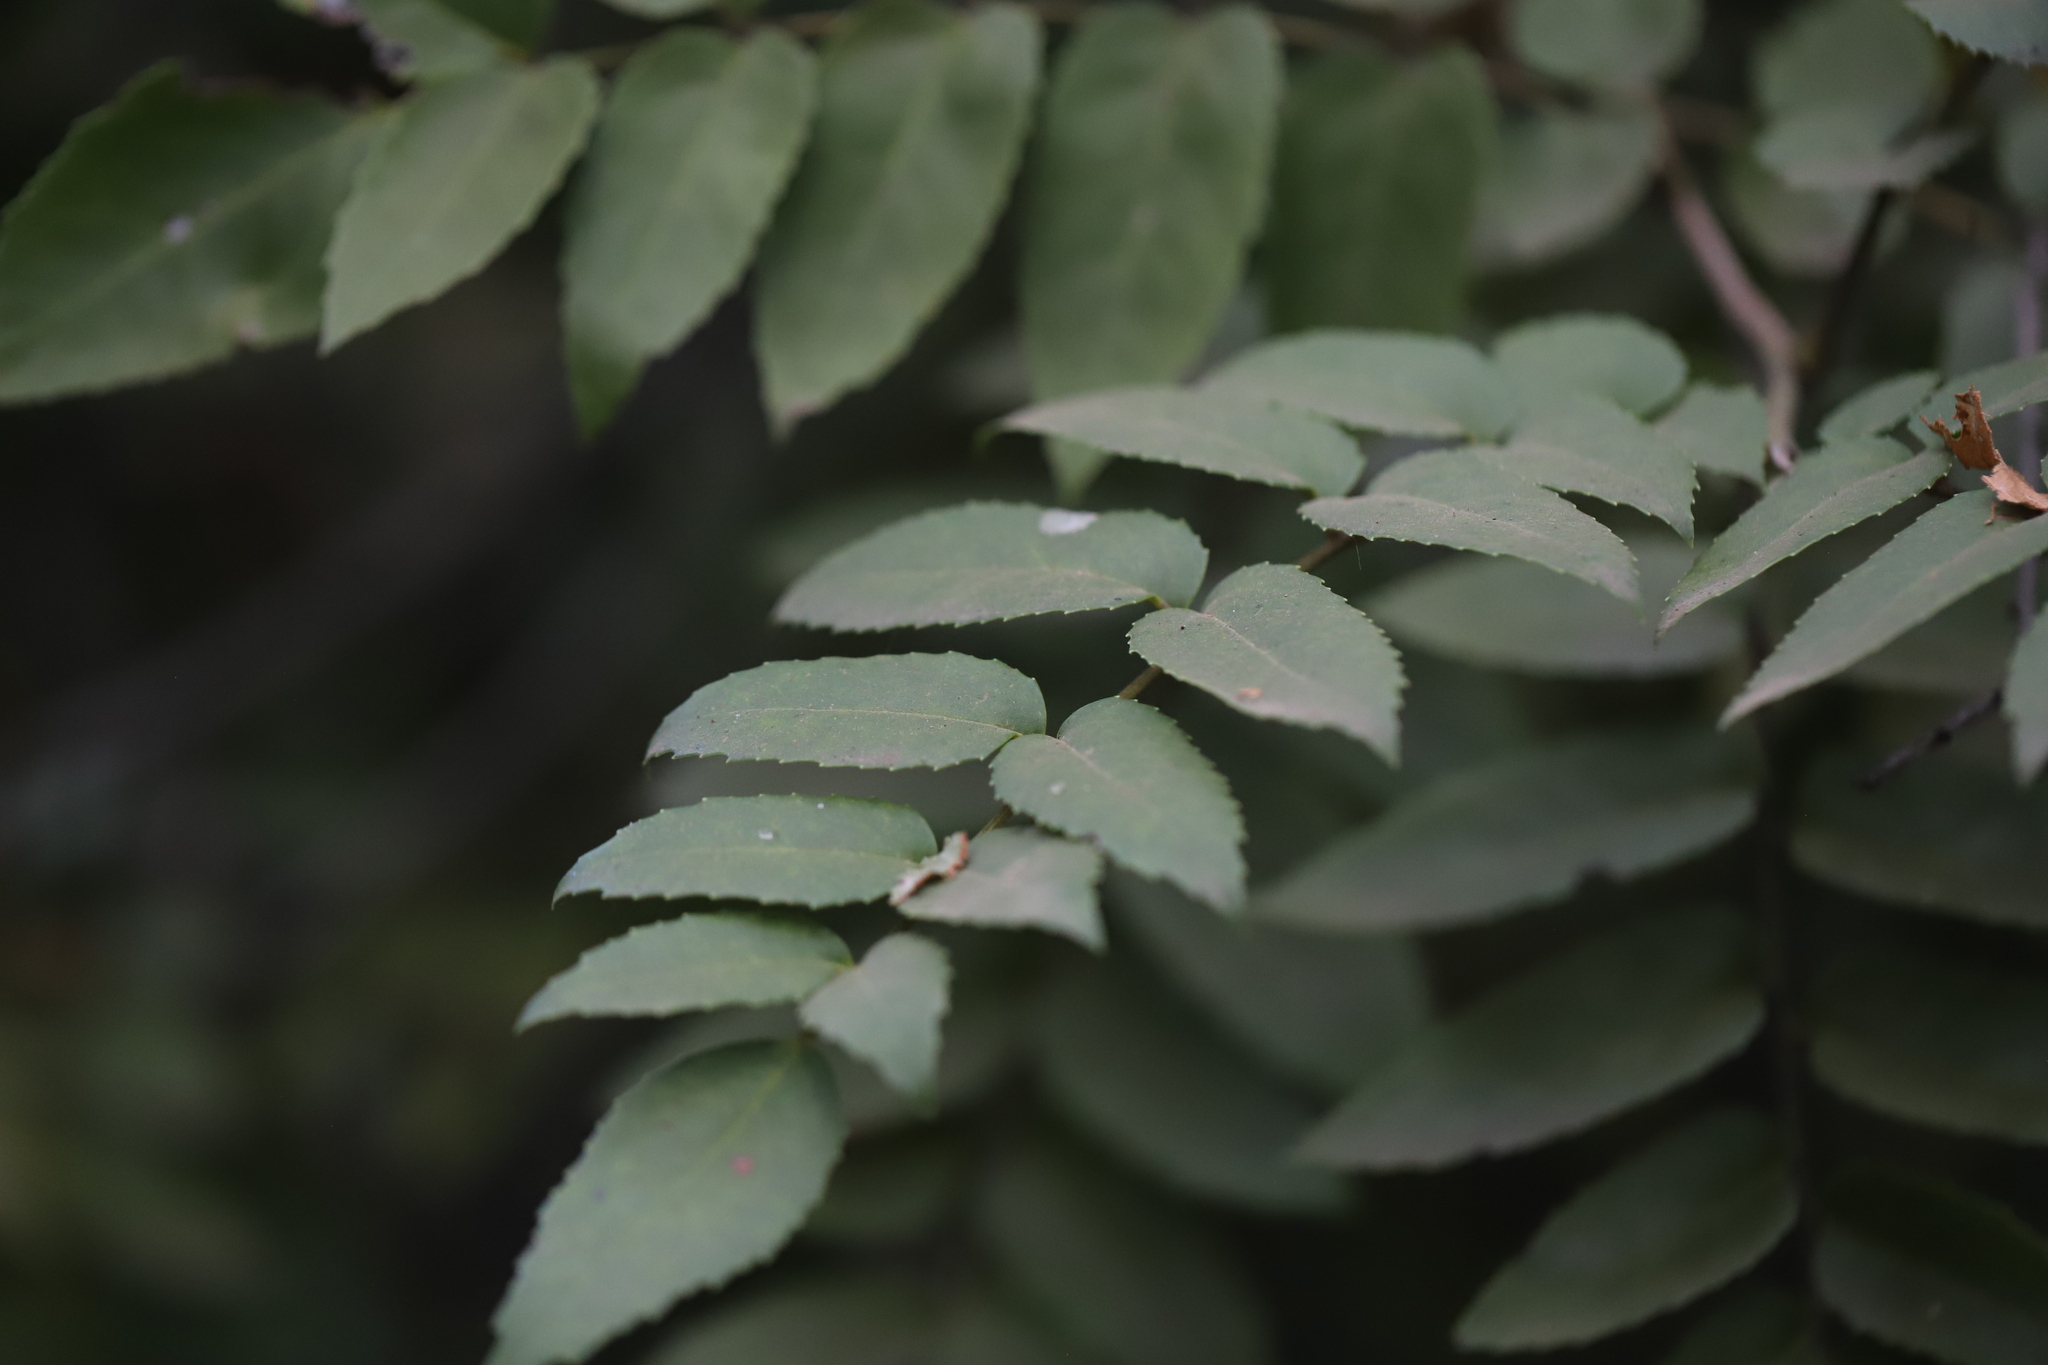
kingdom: Plantae
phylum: Tracheophyta
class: Magnoliopsida
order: Proteales
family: Proteaceae
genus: Gevuina
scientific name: Gevuina avellana
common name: Chilean hazel
